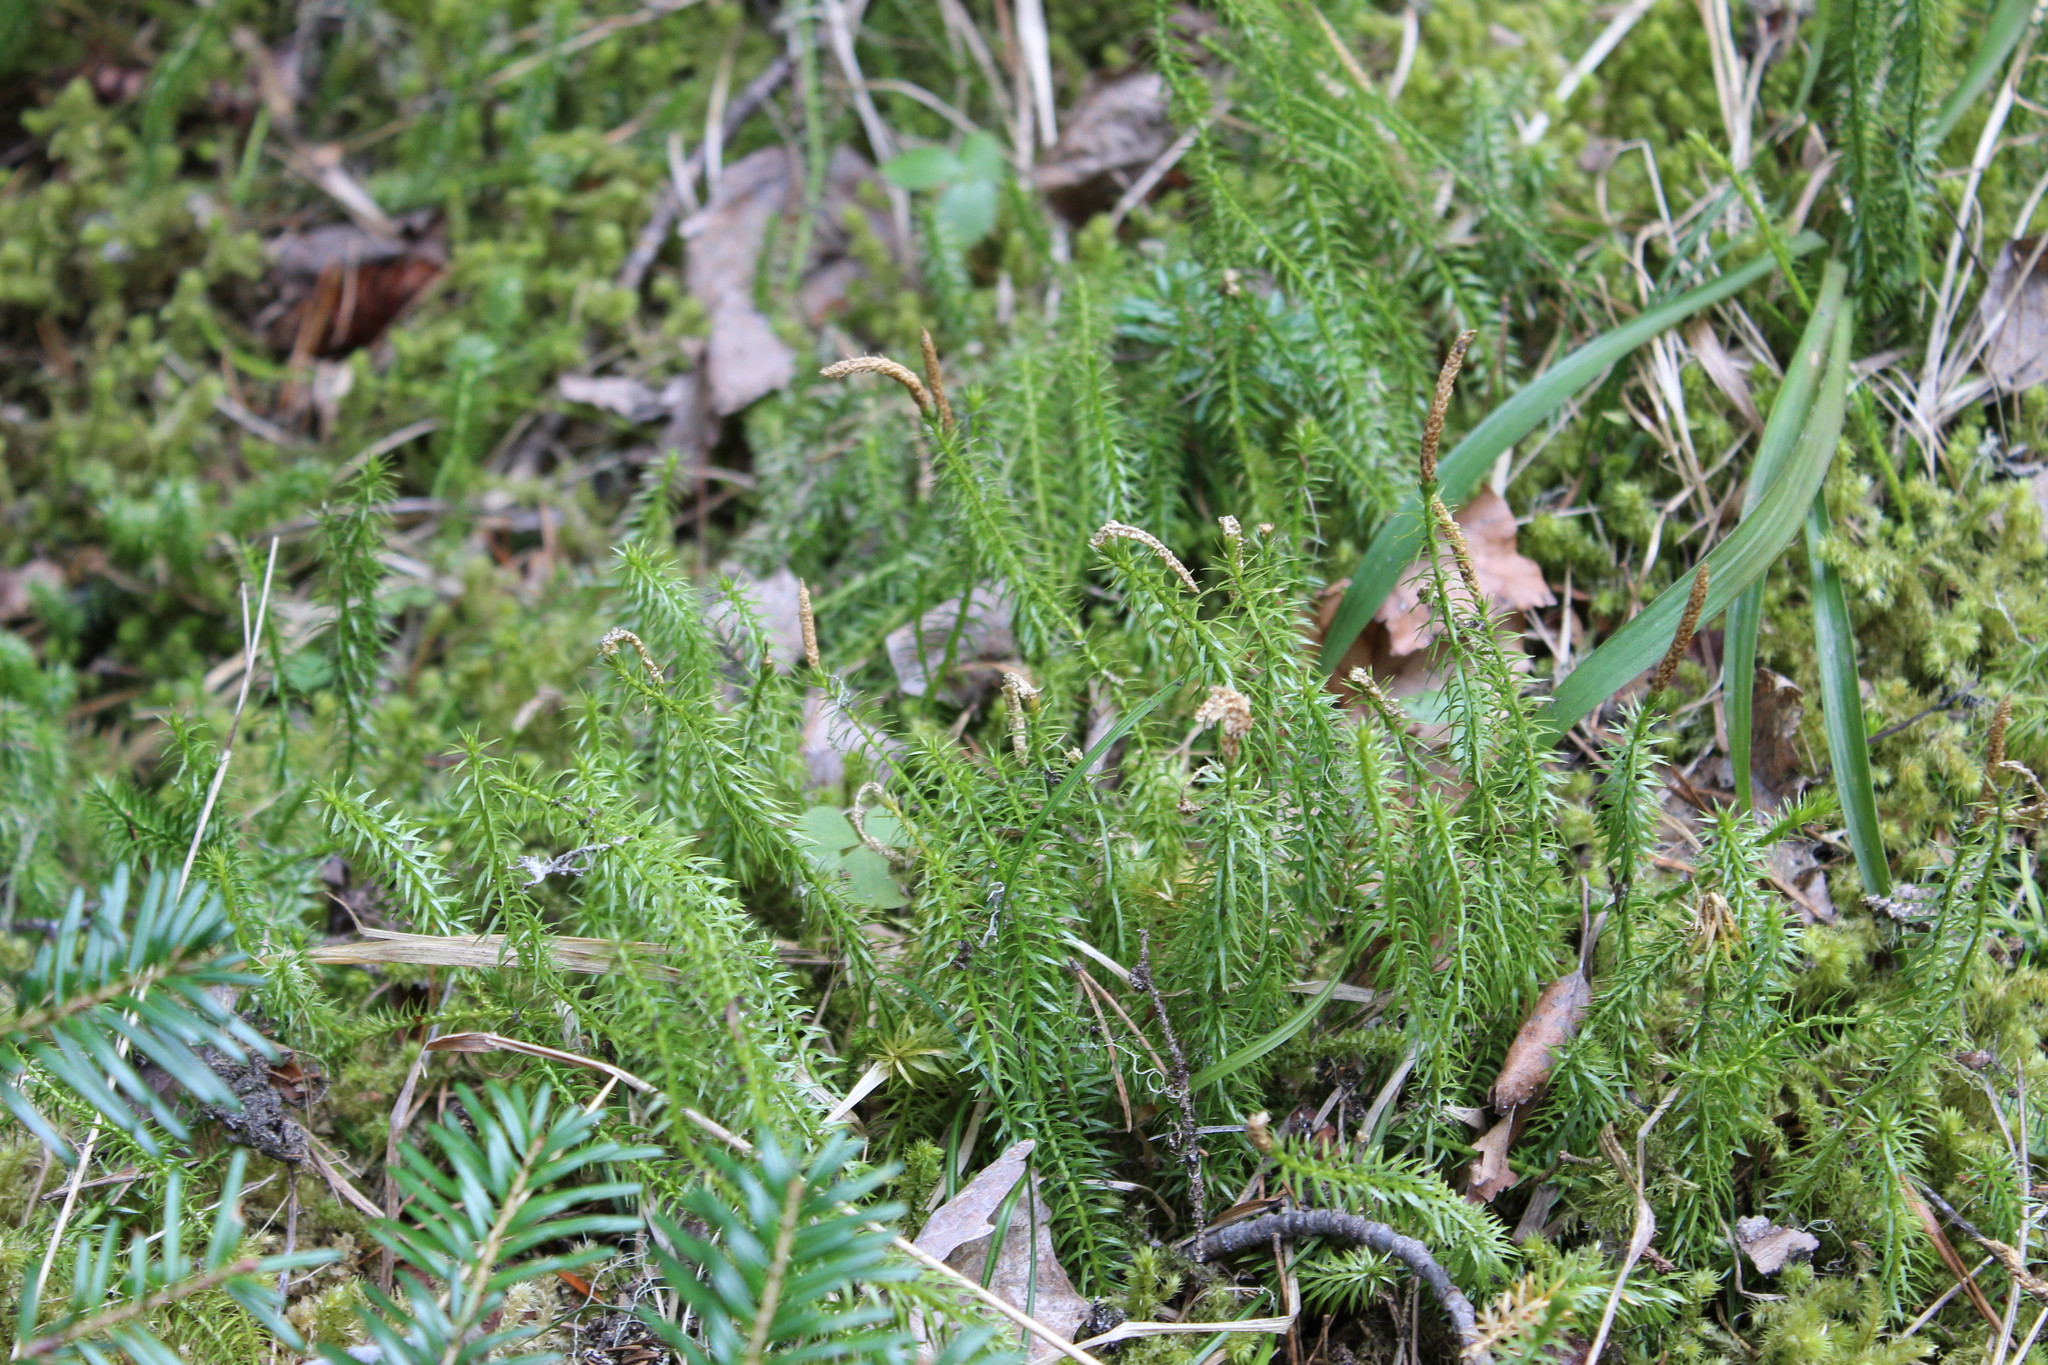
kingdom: Plantae
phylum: Tracheophyta
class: Lycopodiopsida
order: Lycopodiales
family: Lycopodiaceae
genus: Spinulum
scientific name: Spinulum annotinum
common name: Interrupted club-moss
